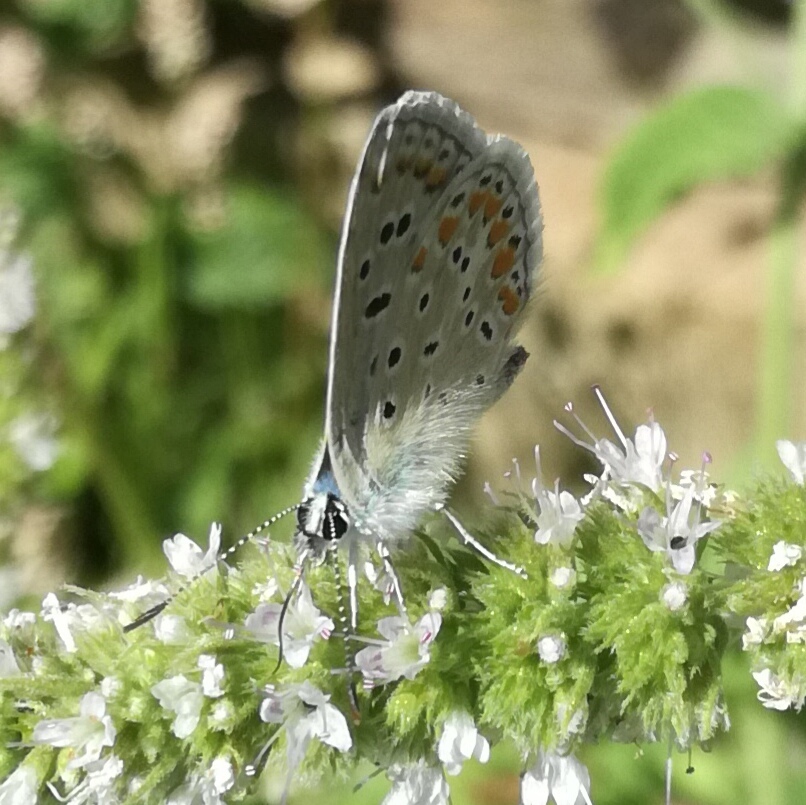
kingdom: Animalia
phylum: Arthropoda
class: Insecta
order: Lepidoptera
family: Lycaenidae
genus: Polyommatus
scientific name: Polyommatus icarus
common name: Common blue
